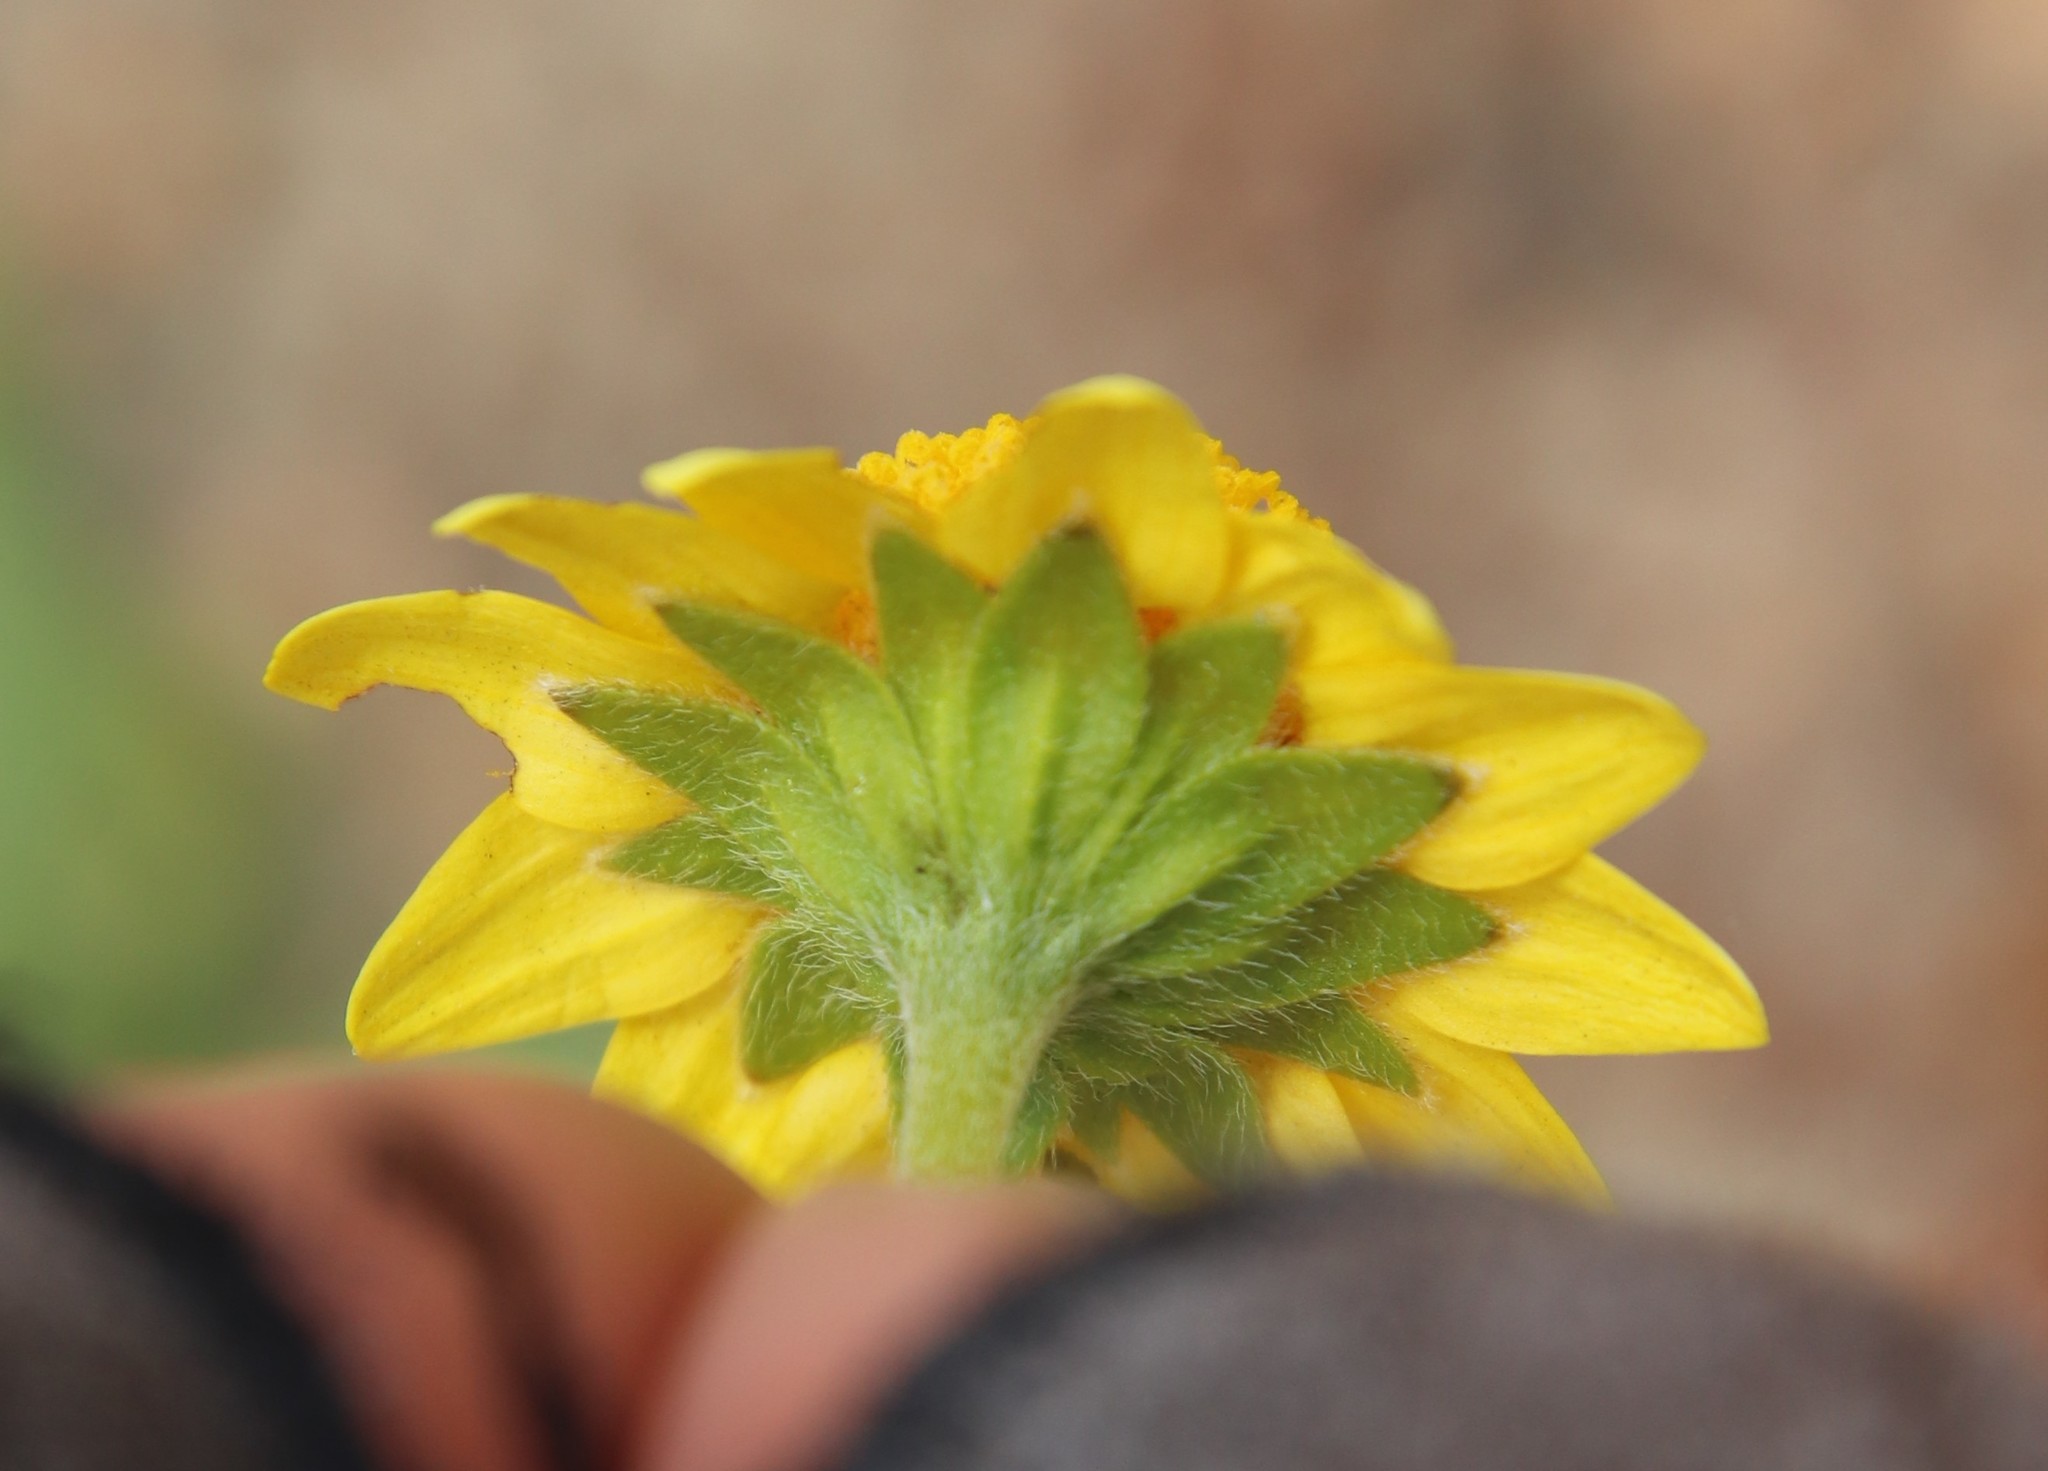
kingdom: Plantae
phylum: Tracheophyta
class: Magnoliopsida
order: Asterales
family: Asteraceae
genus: Lasthenia
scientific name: Lasthenia gracilis
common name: Common goldfields
